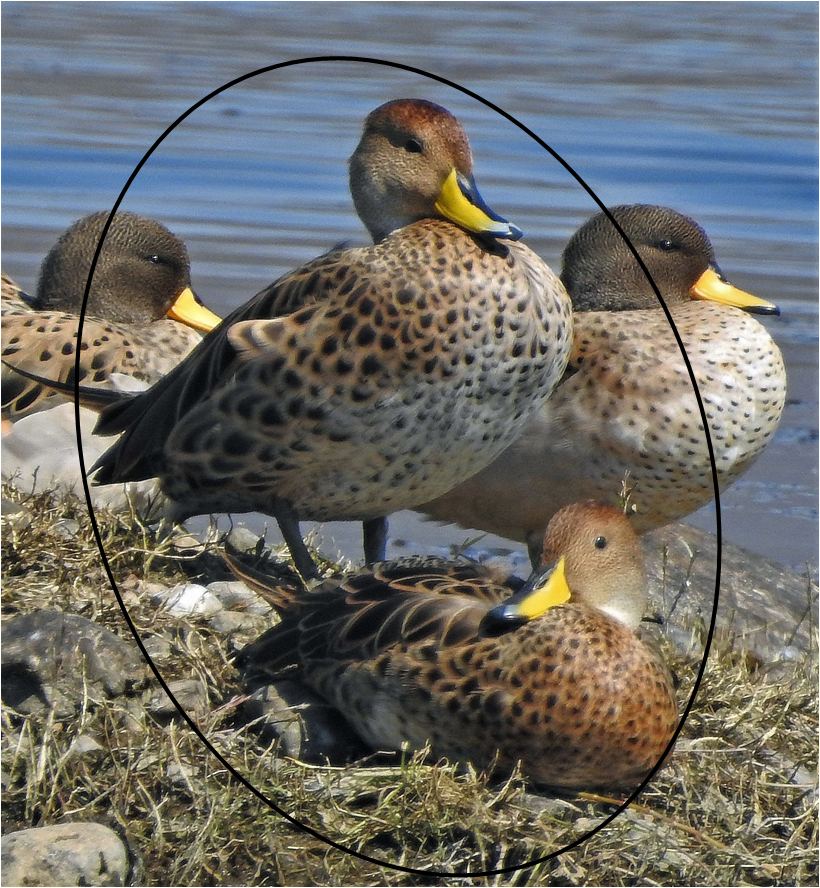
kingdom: Animalia
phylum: Chordata
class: Aves
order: Anseriformes
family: Anatidae
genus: Anas
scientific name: Anas georgica
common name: Yellow-billed pintail
